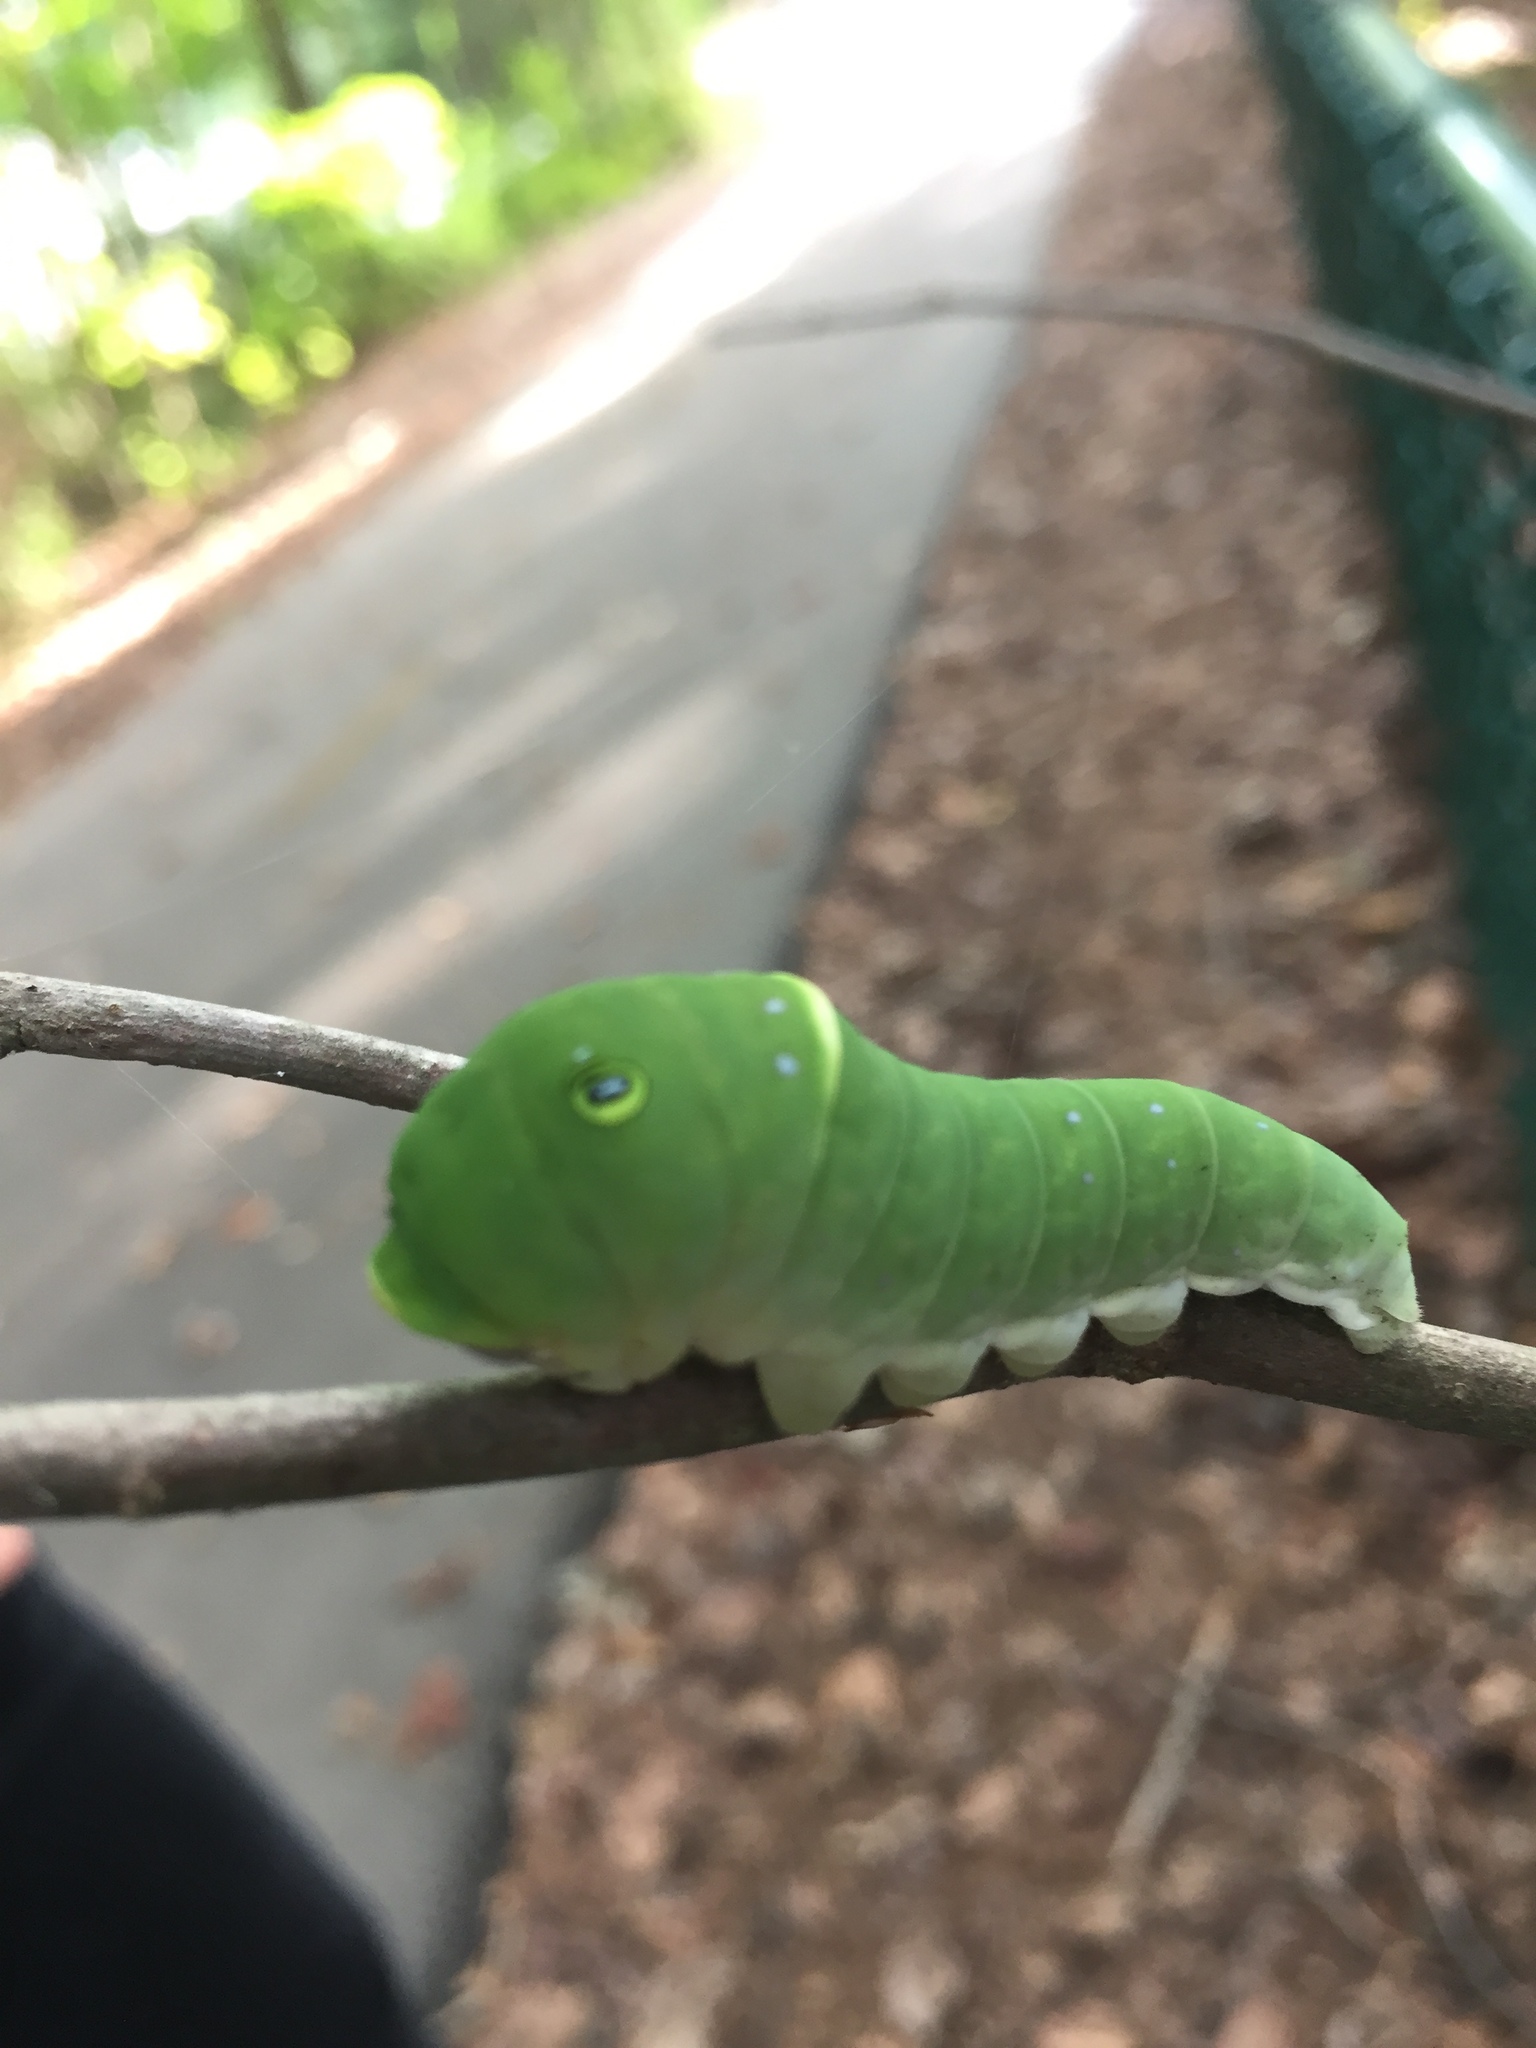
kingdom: Animalia
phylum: Arthropoda
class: Insecta
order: Lepidoptera
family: Papilionidae
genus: Papilio
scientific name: Papilio glaucus
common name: Tiger swallowtail
